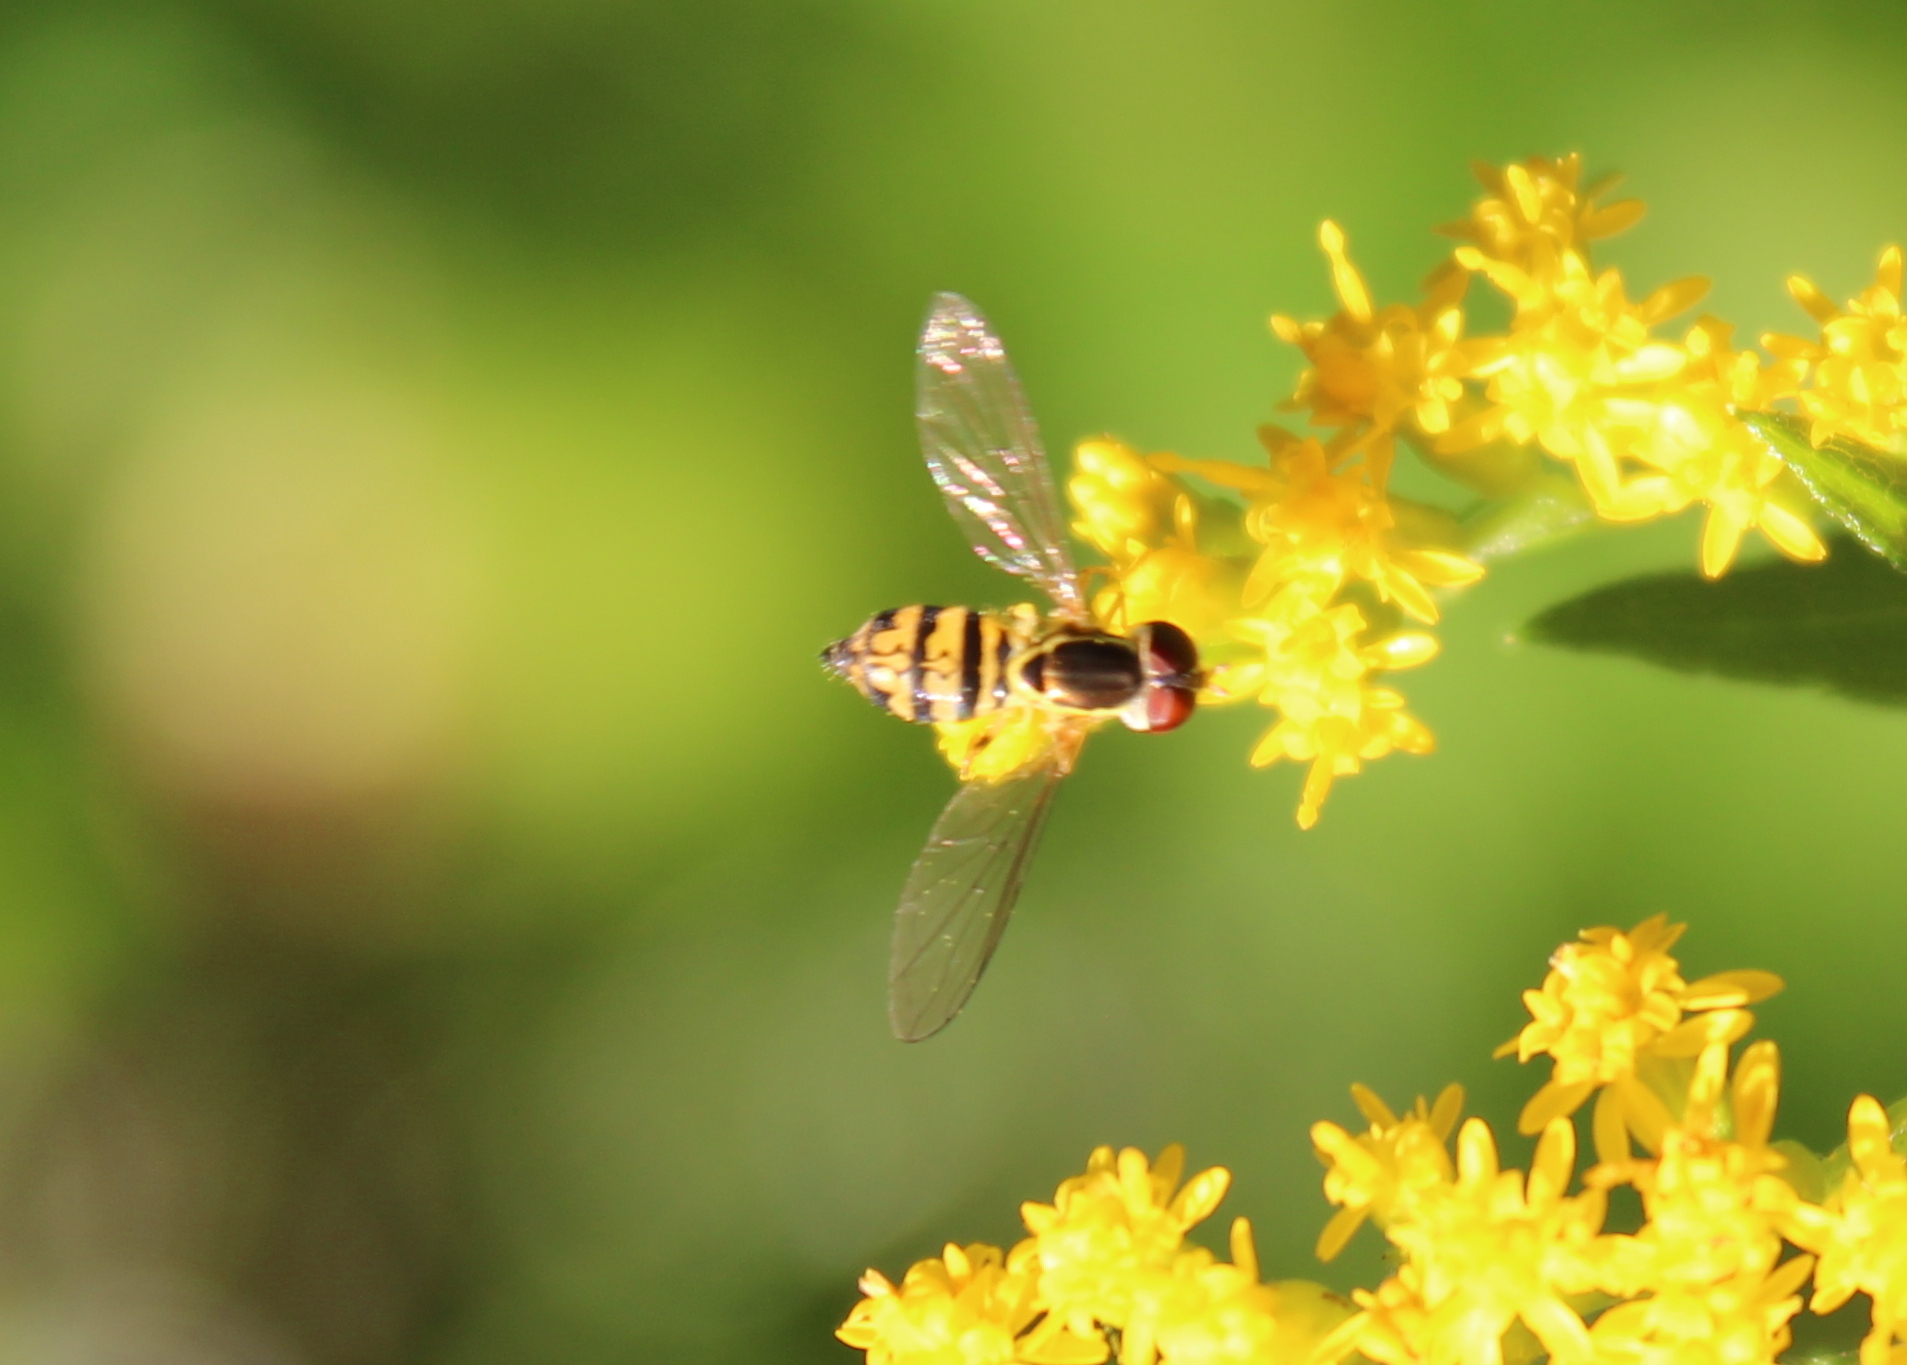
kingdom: Animalia
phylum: Arthropoda
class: Insecta
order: Diptera
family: Syrphidae
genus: Toxomerus
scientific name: Toxomerus geminatus
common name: Eastern calligrapher
